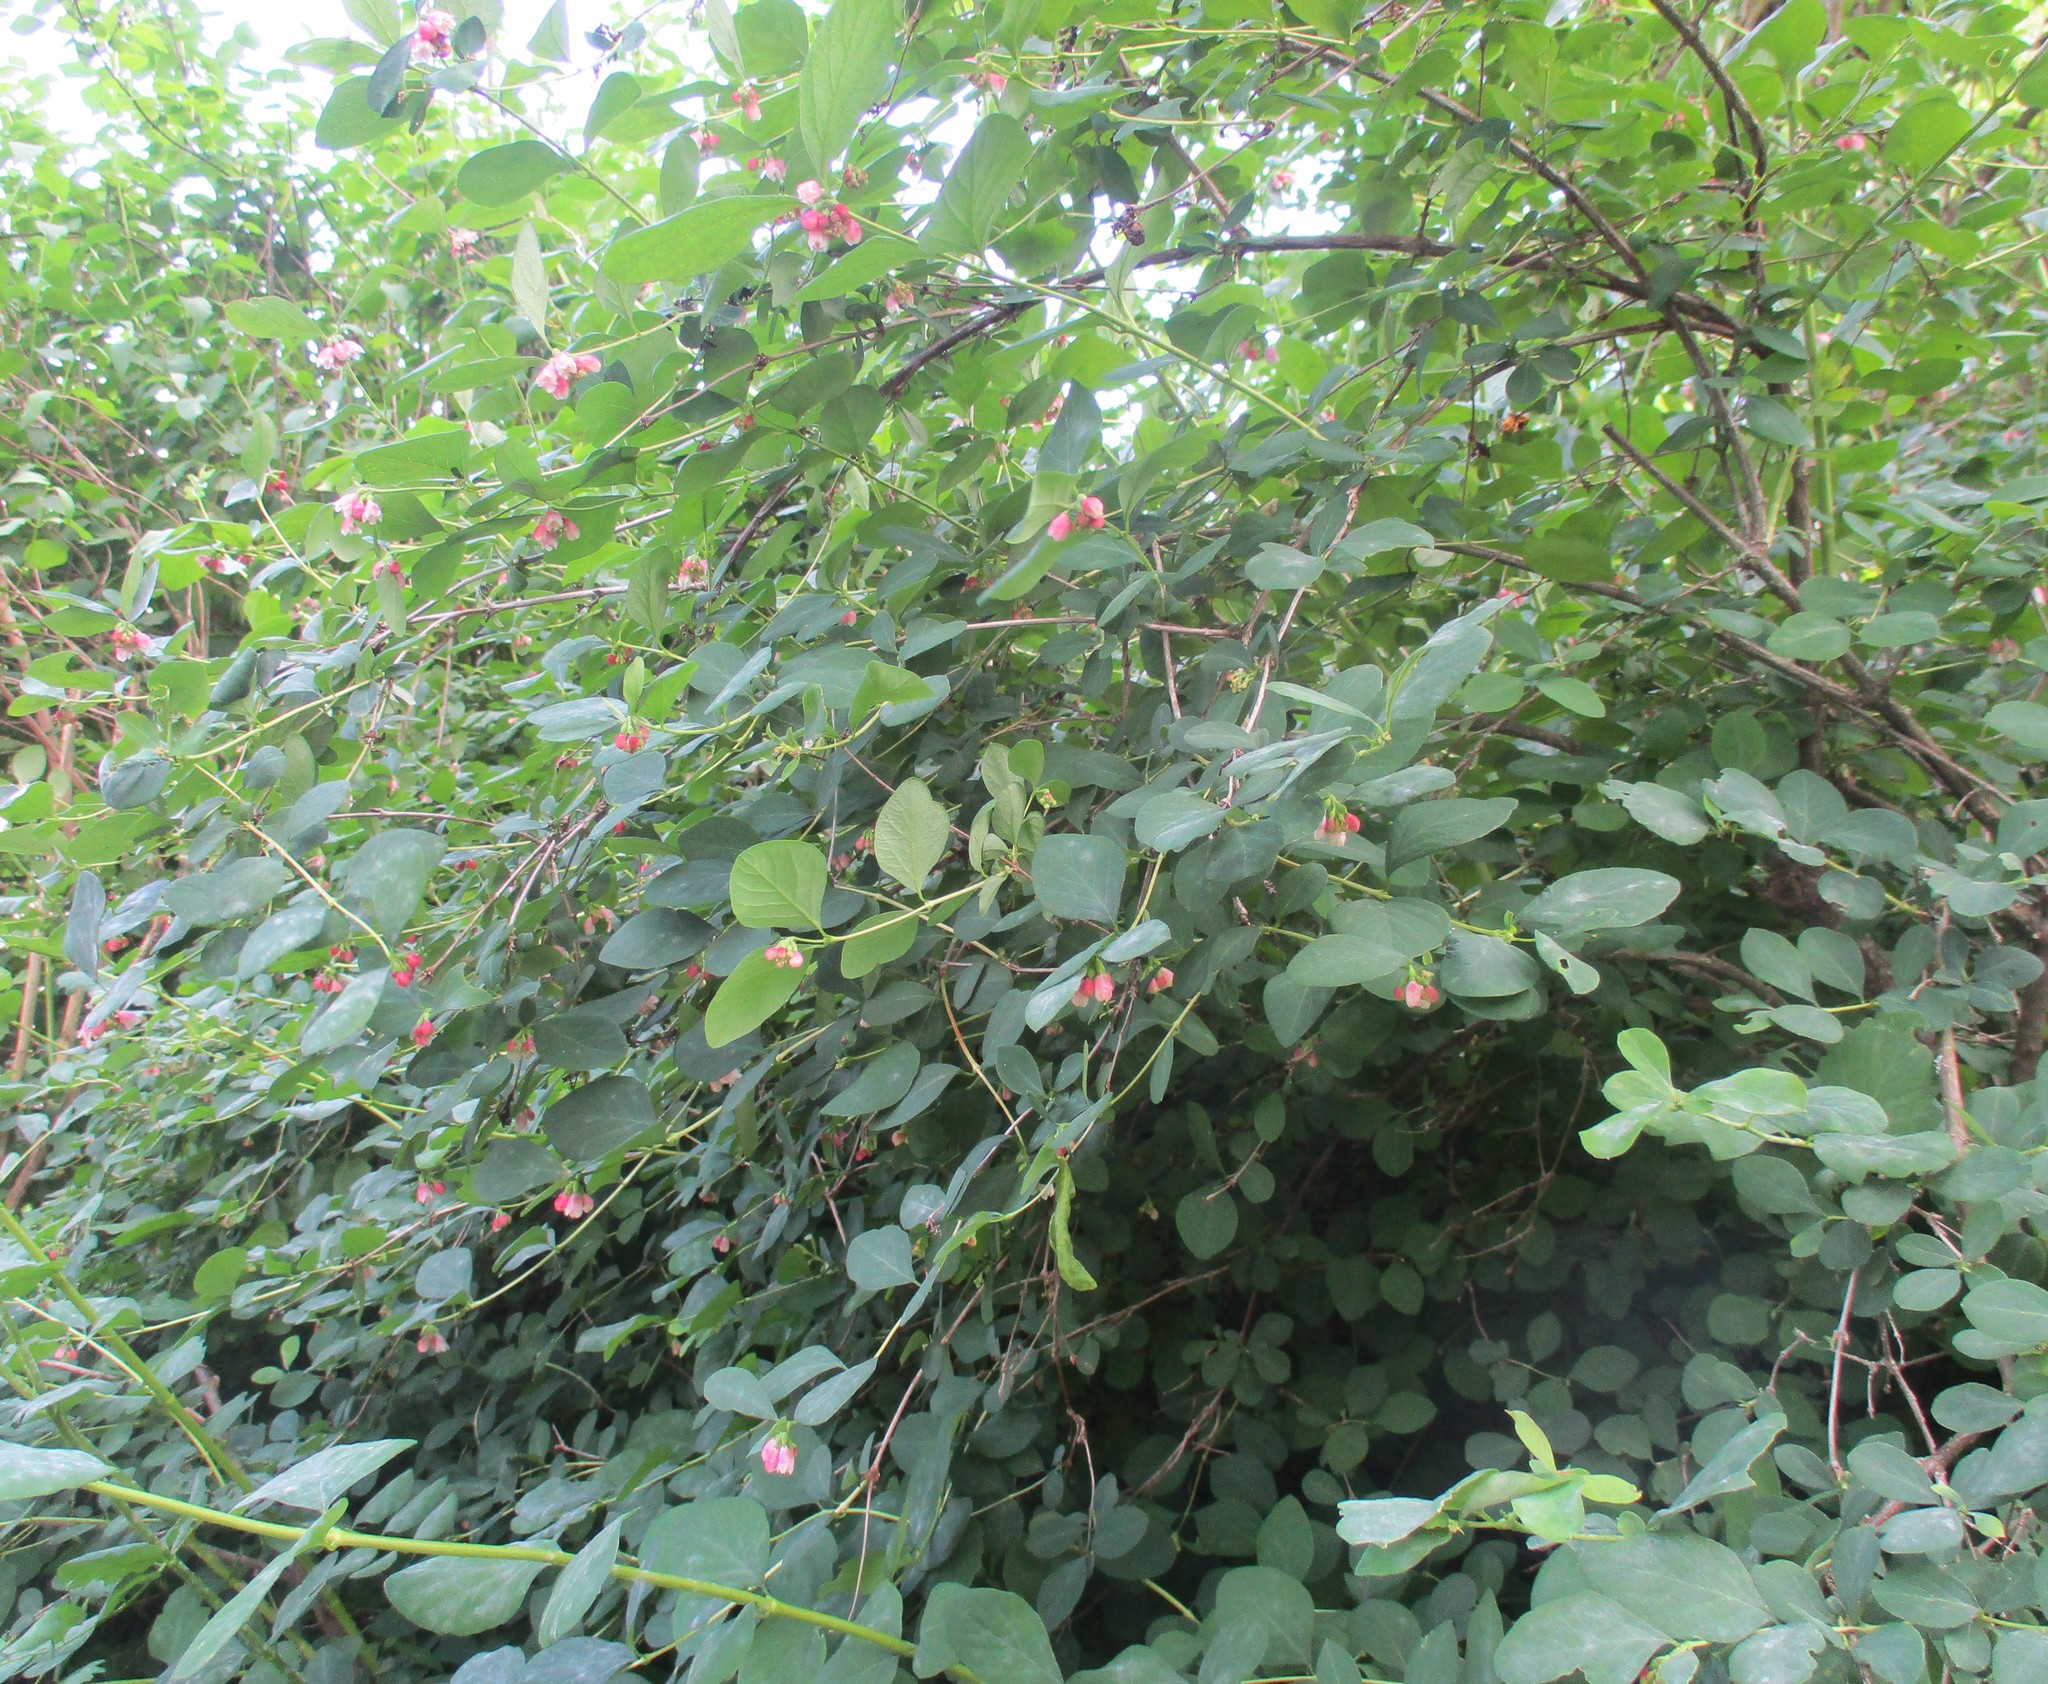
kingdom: Plantae
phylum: Tracheophyta
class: Magnoliopsida
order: Dipsacales
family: Caprifoliaceae
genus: Symphoricarpos
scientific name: Symphoricarpos albus
